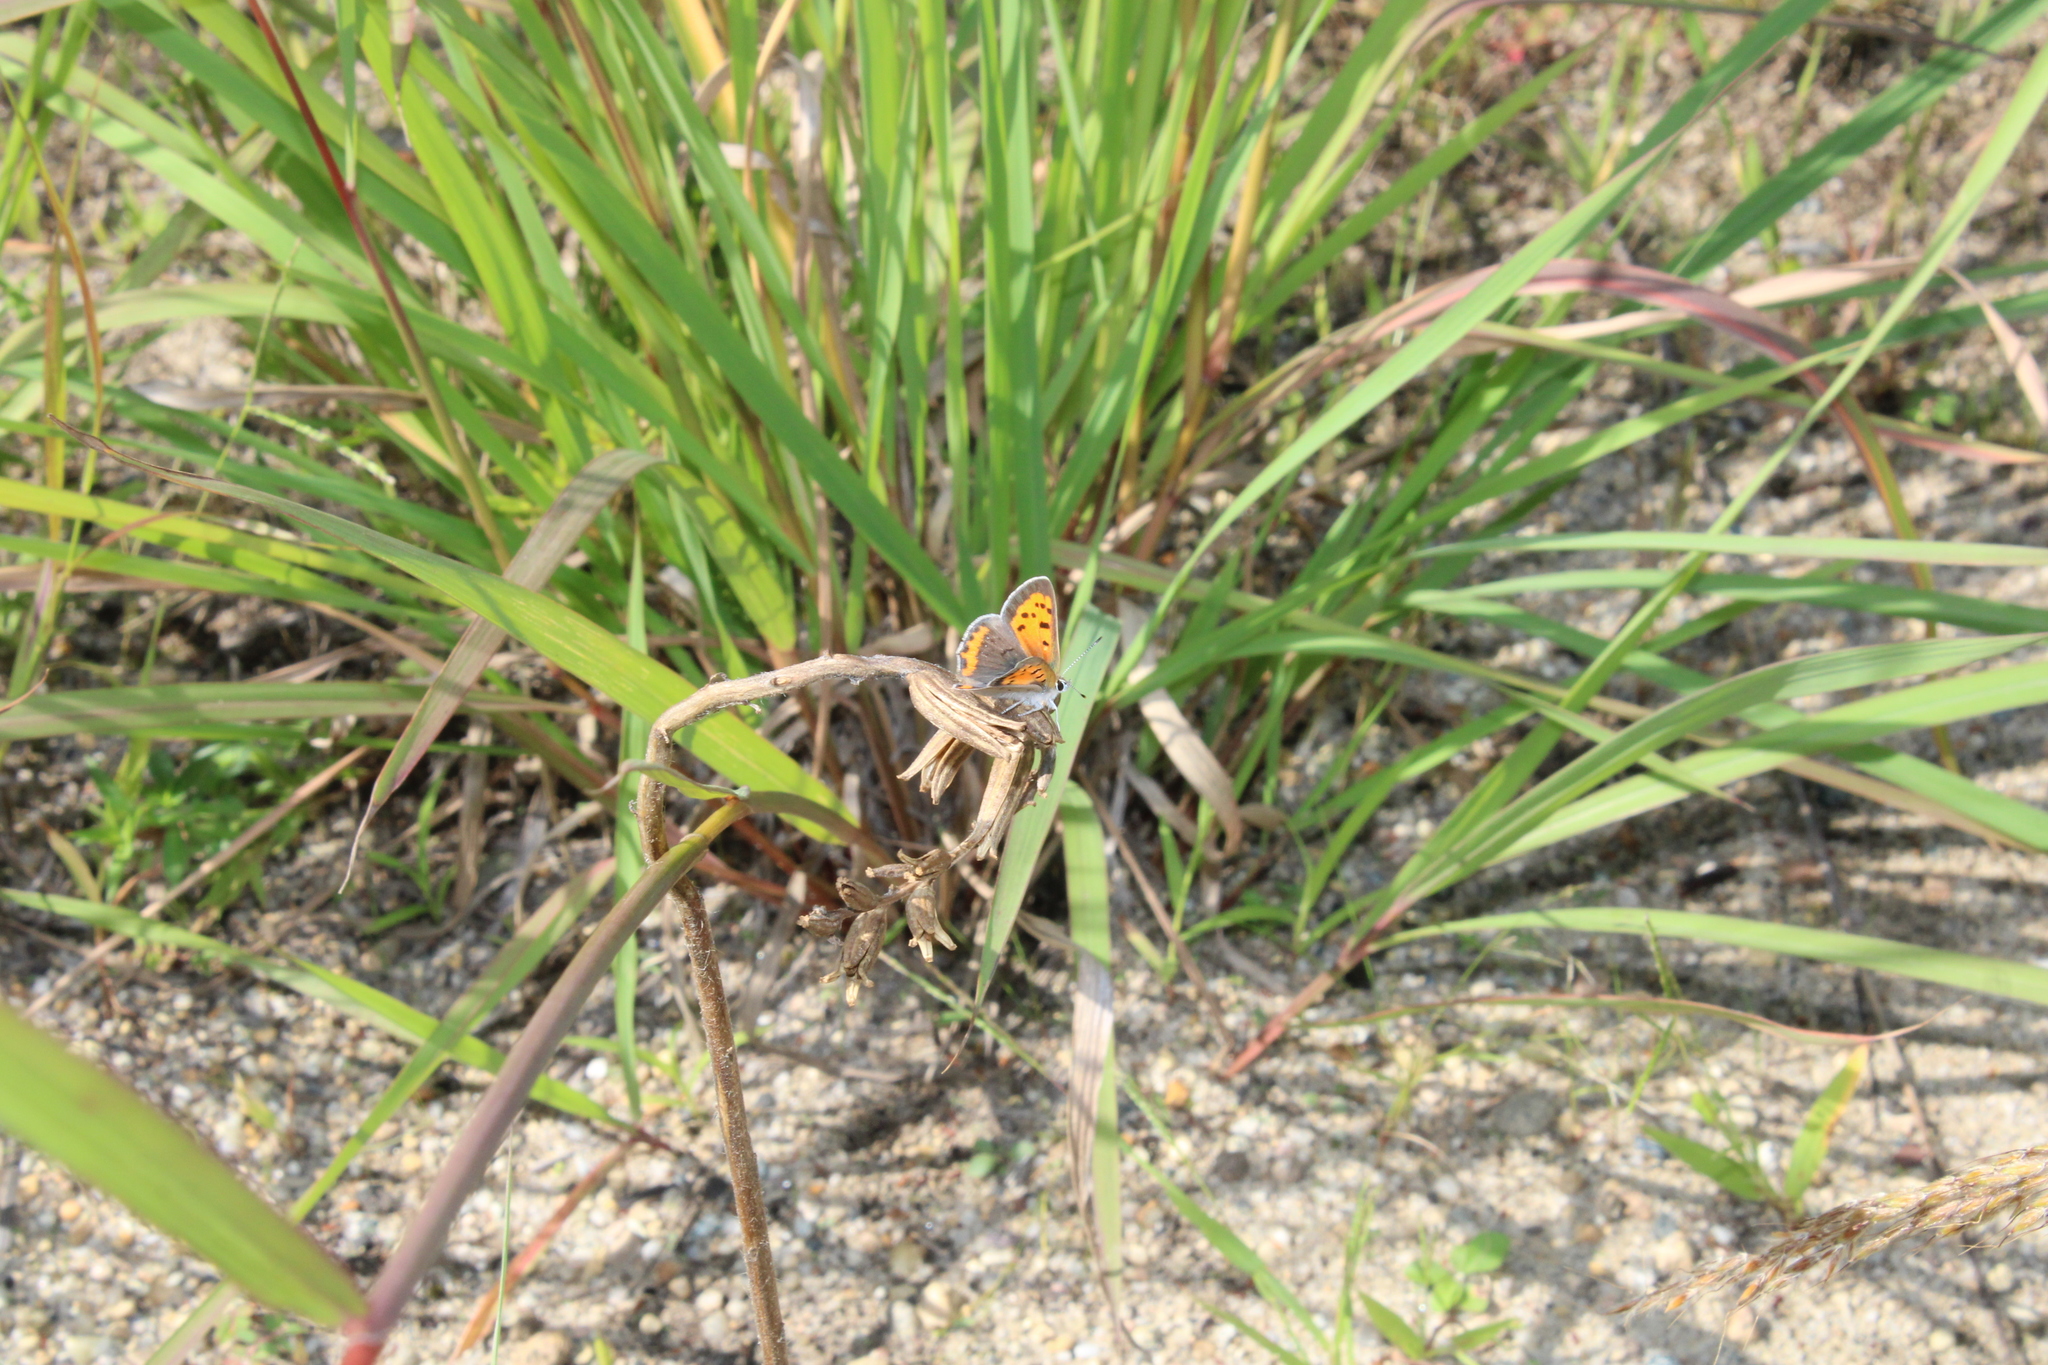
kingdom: Animalia
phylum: Arthropoda
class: Insecta
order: Lepidoptera
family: Lycaenidae
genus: Lycaena
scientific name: Lycaena hypophlaeas
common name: American copper
